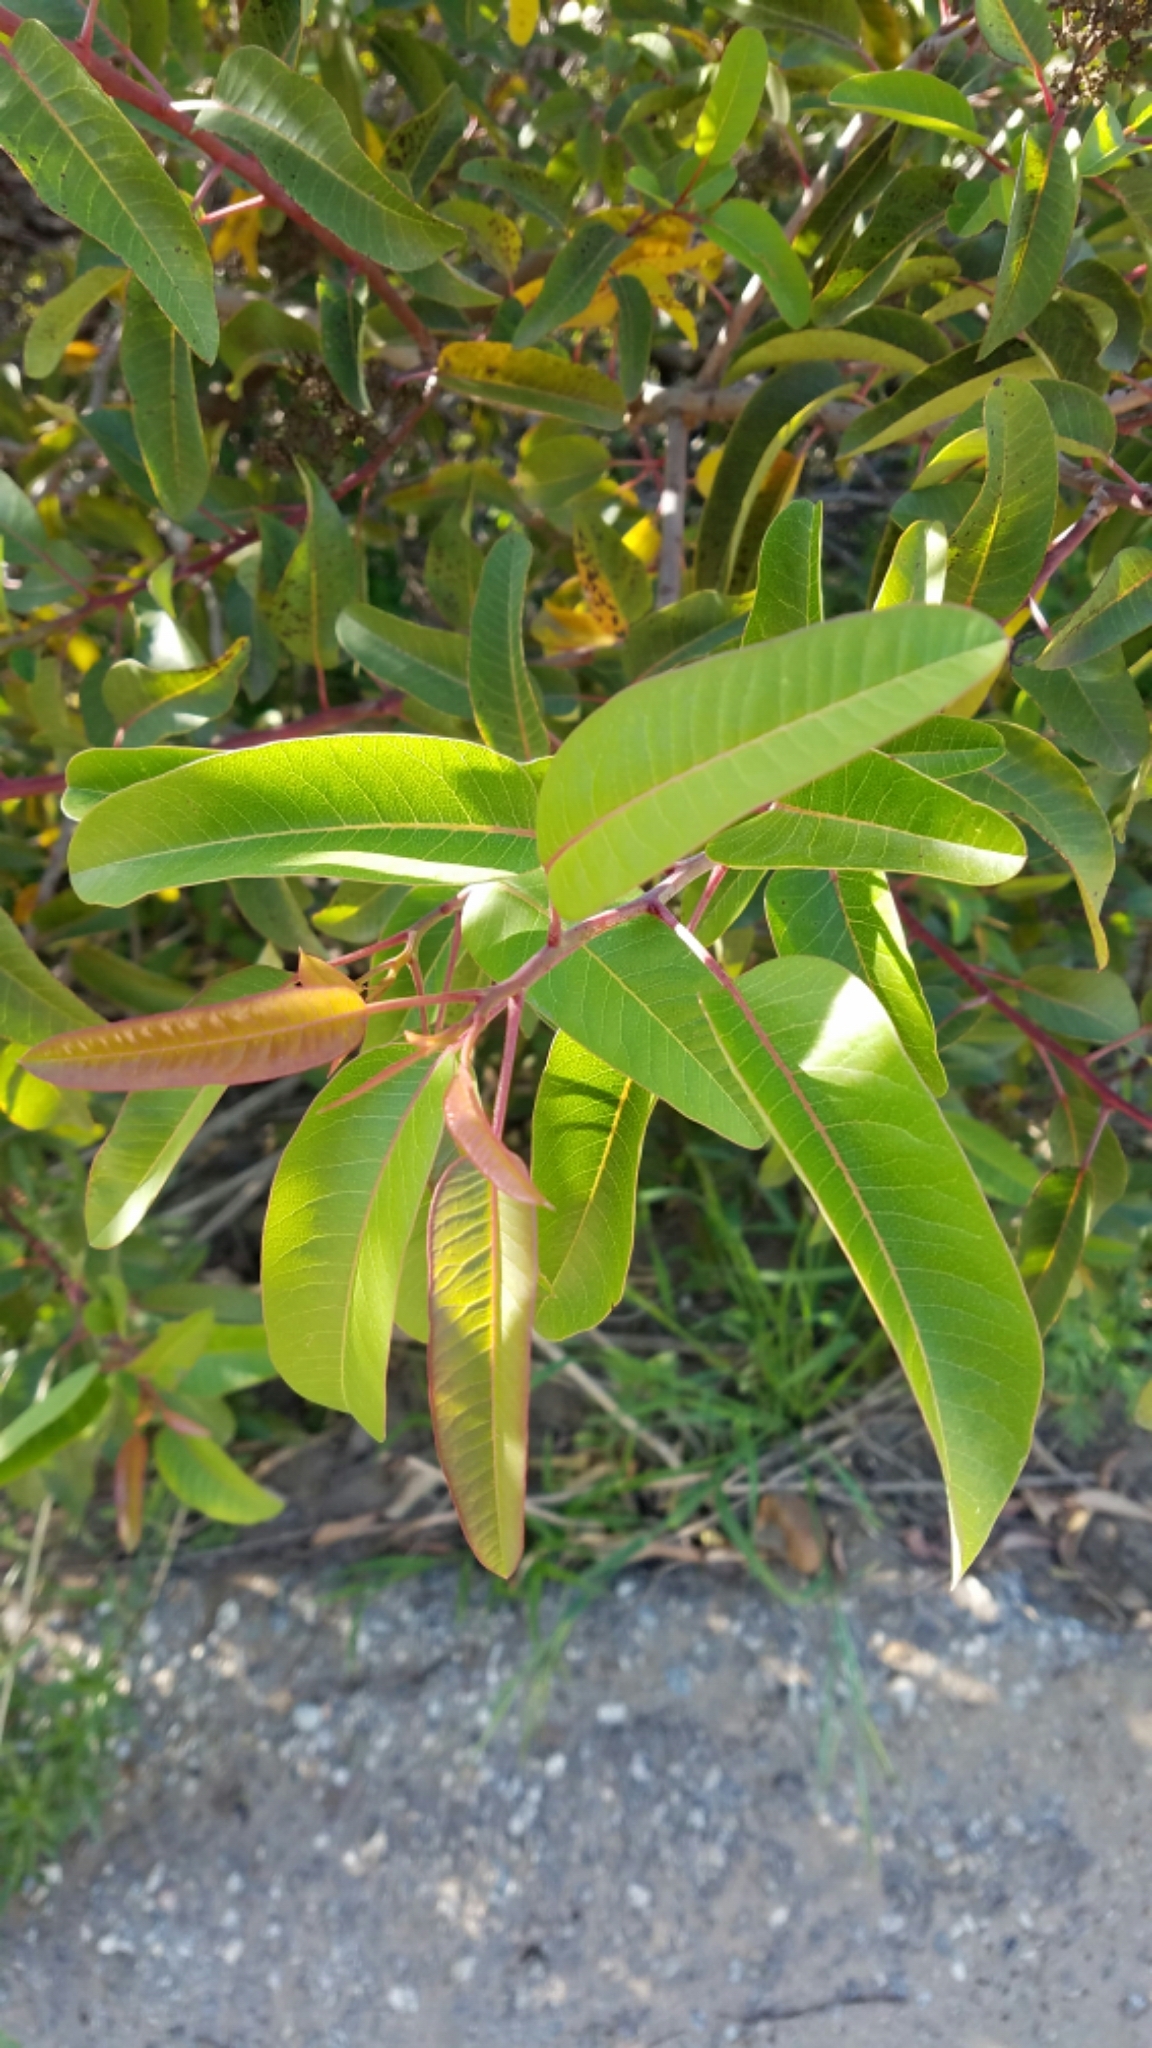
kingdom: Plantae
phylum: Tracheophyta
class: Magnoliopsida
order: Sapindales
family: Anacardiaceae
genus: Malosma
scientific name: Malosma laurina
